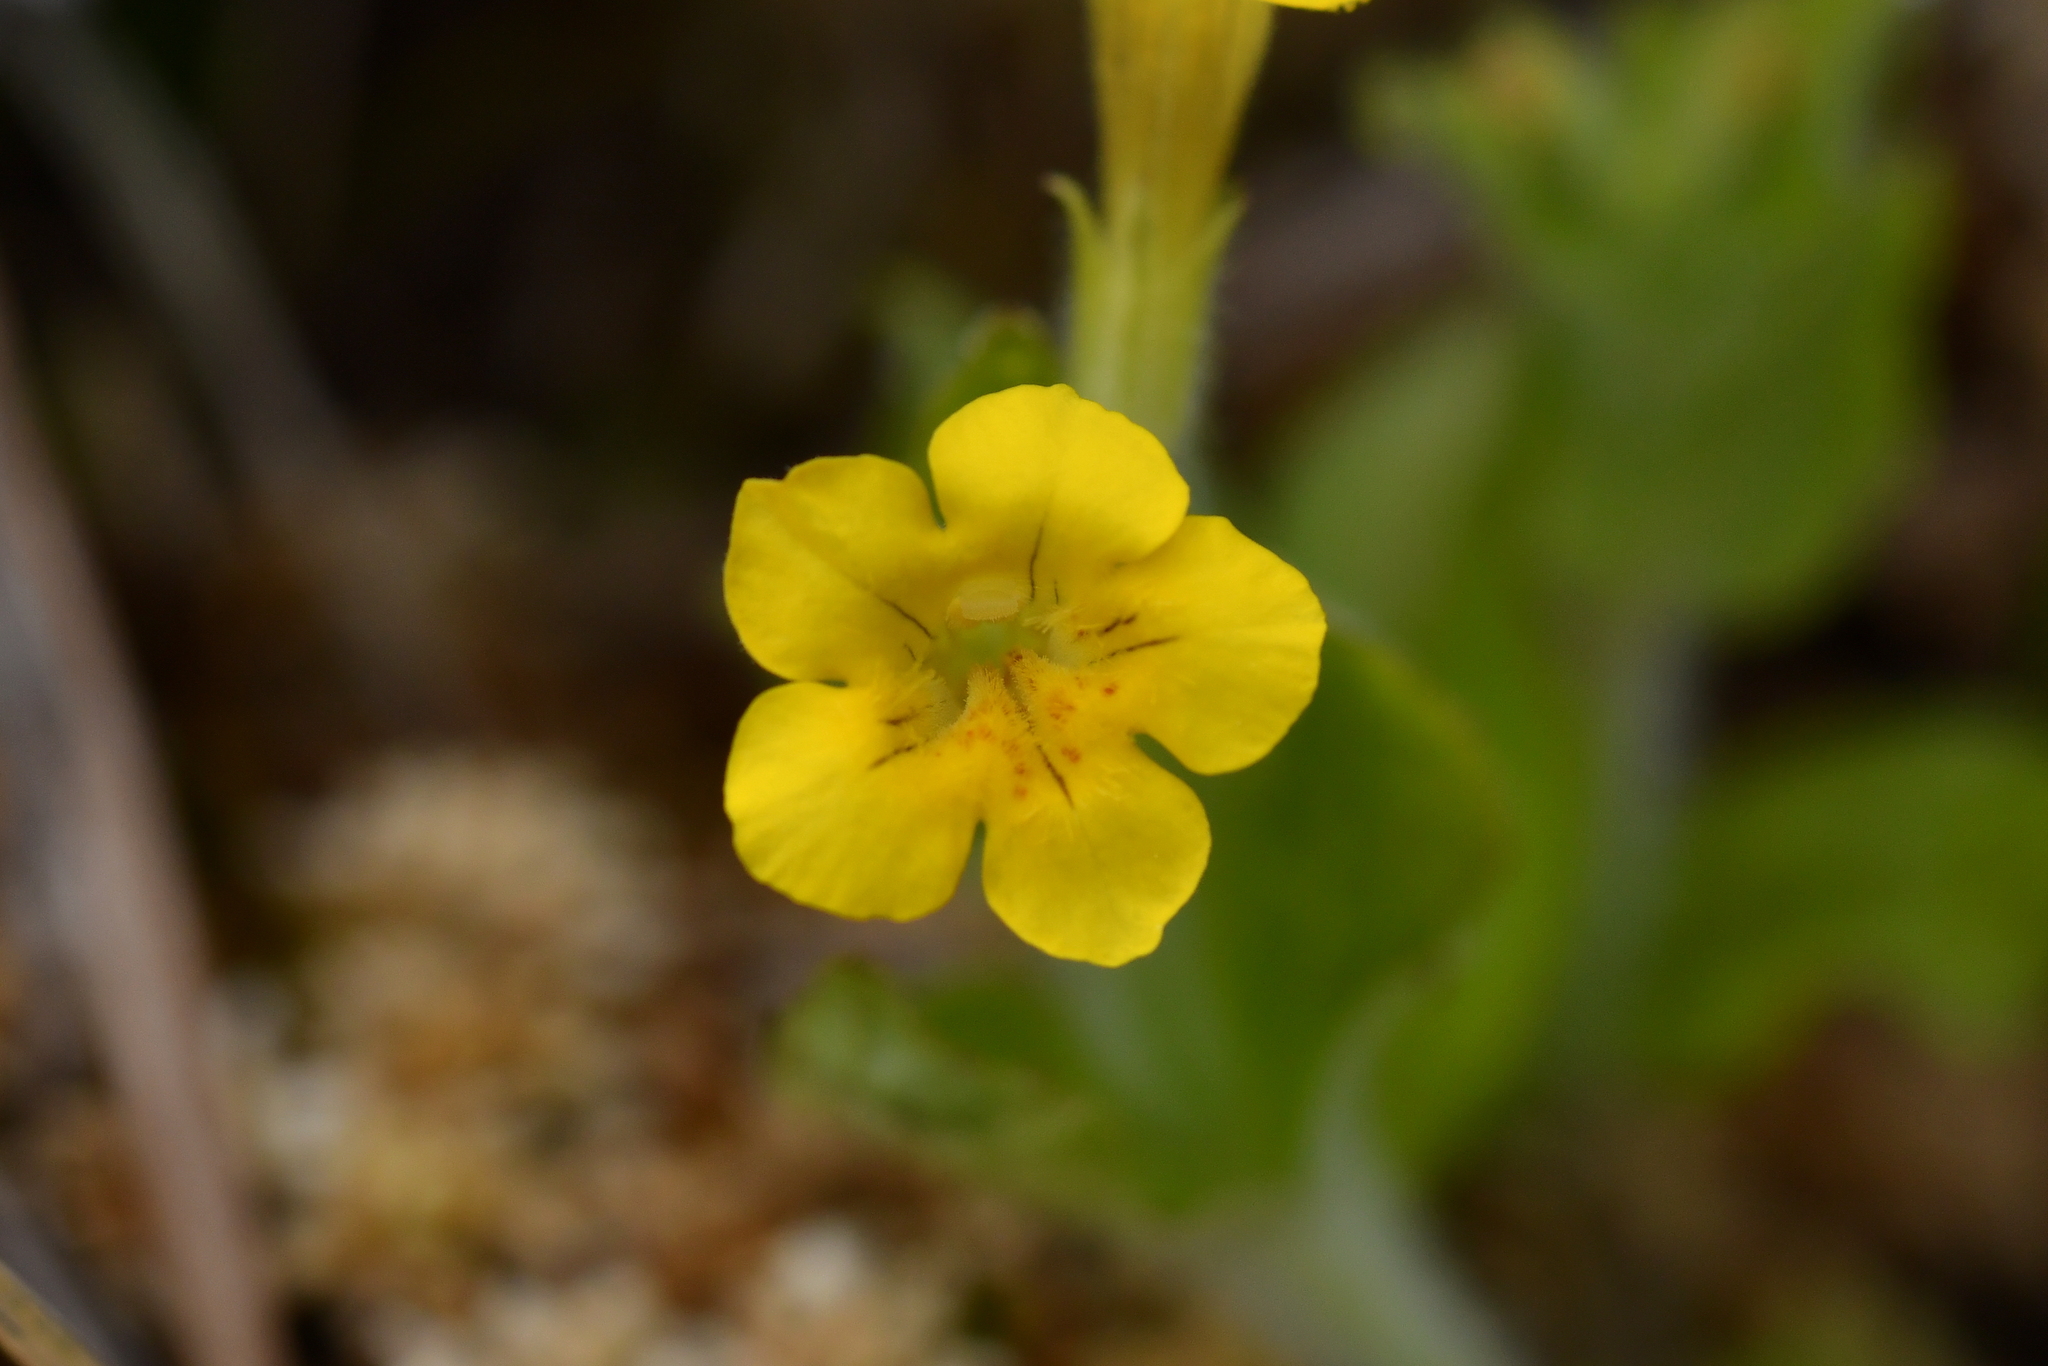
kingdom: Plantae
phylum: Tracheophyta
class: Magnoliopsida
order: Lamiales
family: Phrymaceae
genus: Erythranthe
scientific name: Erythranthe moschata
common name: Muskflower
